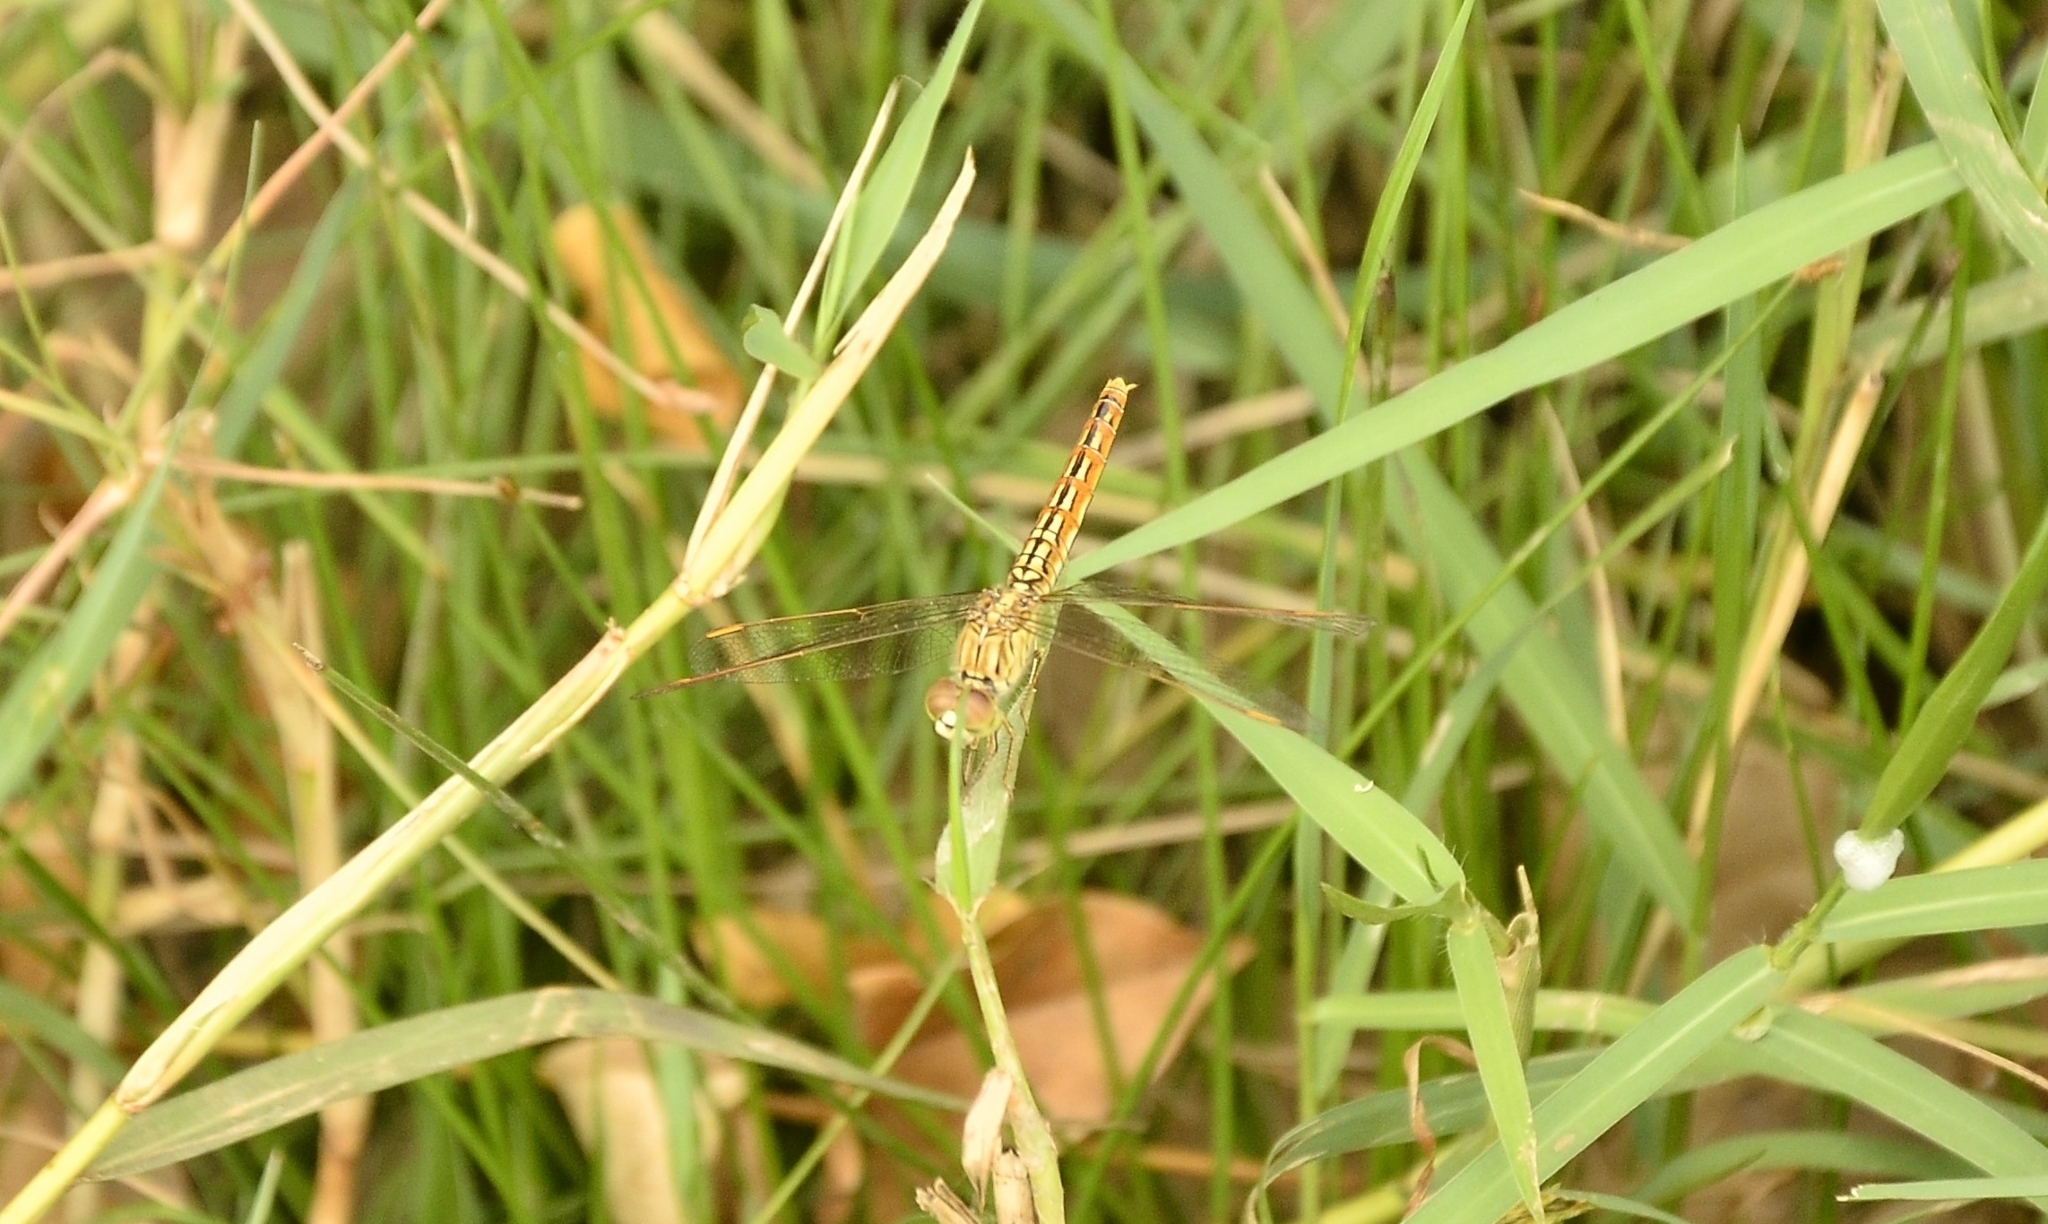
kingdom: Animalia
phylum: Arthropoda
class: Insecta
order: Odonata
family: Libellulidae
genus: Brachythemis
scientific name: Brachythemis contaminata
